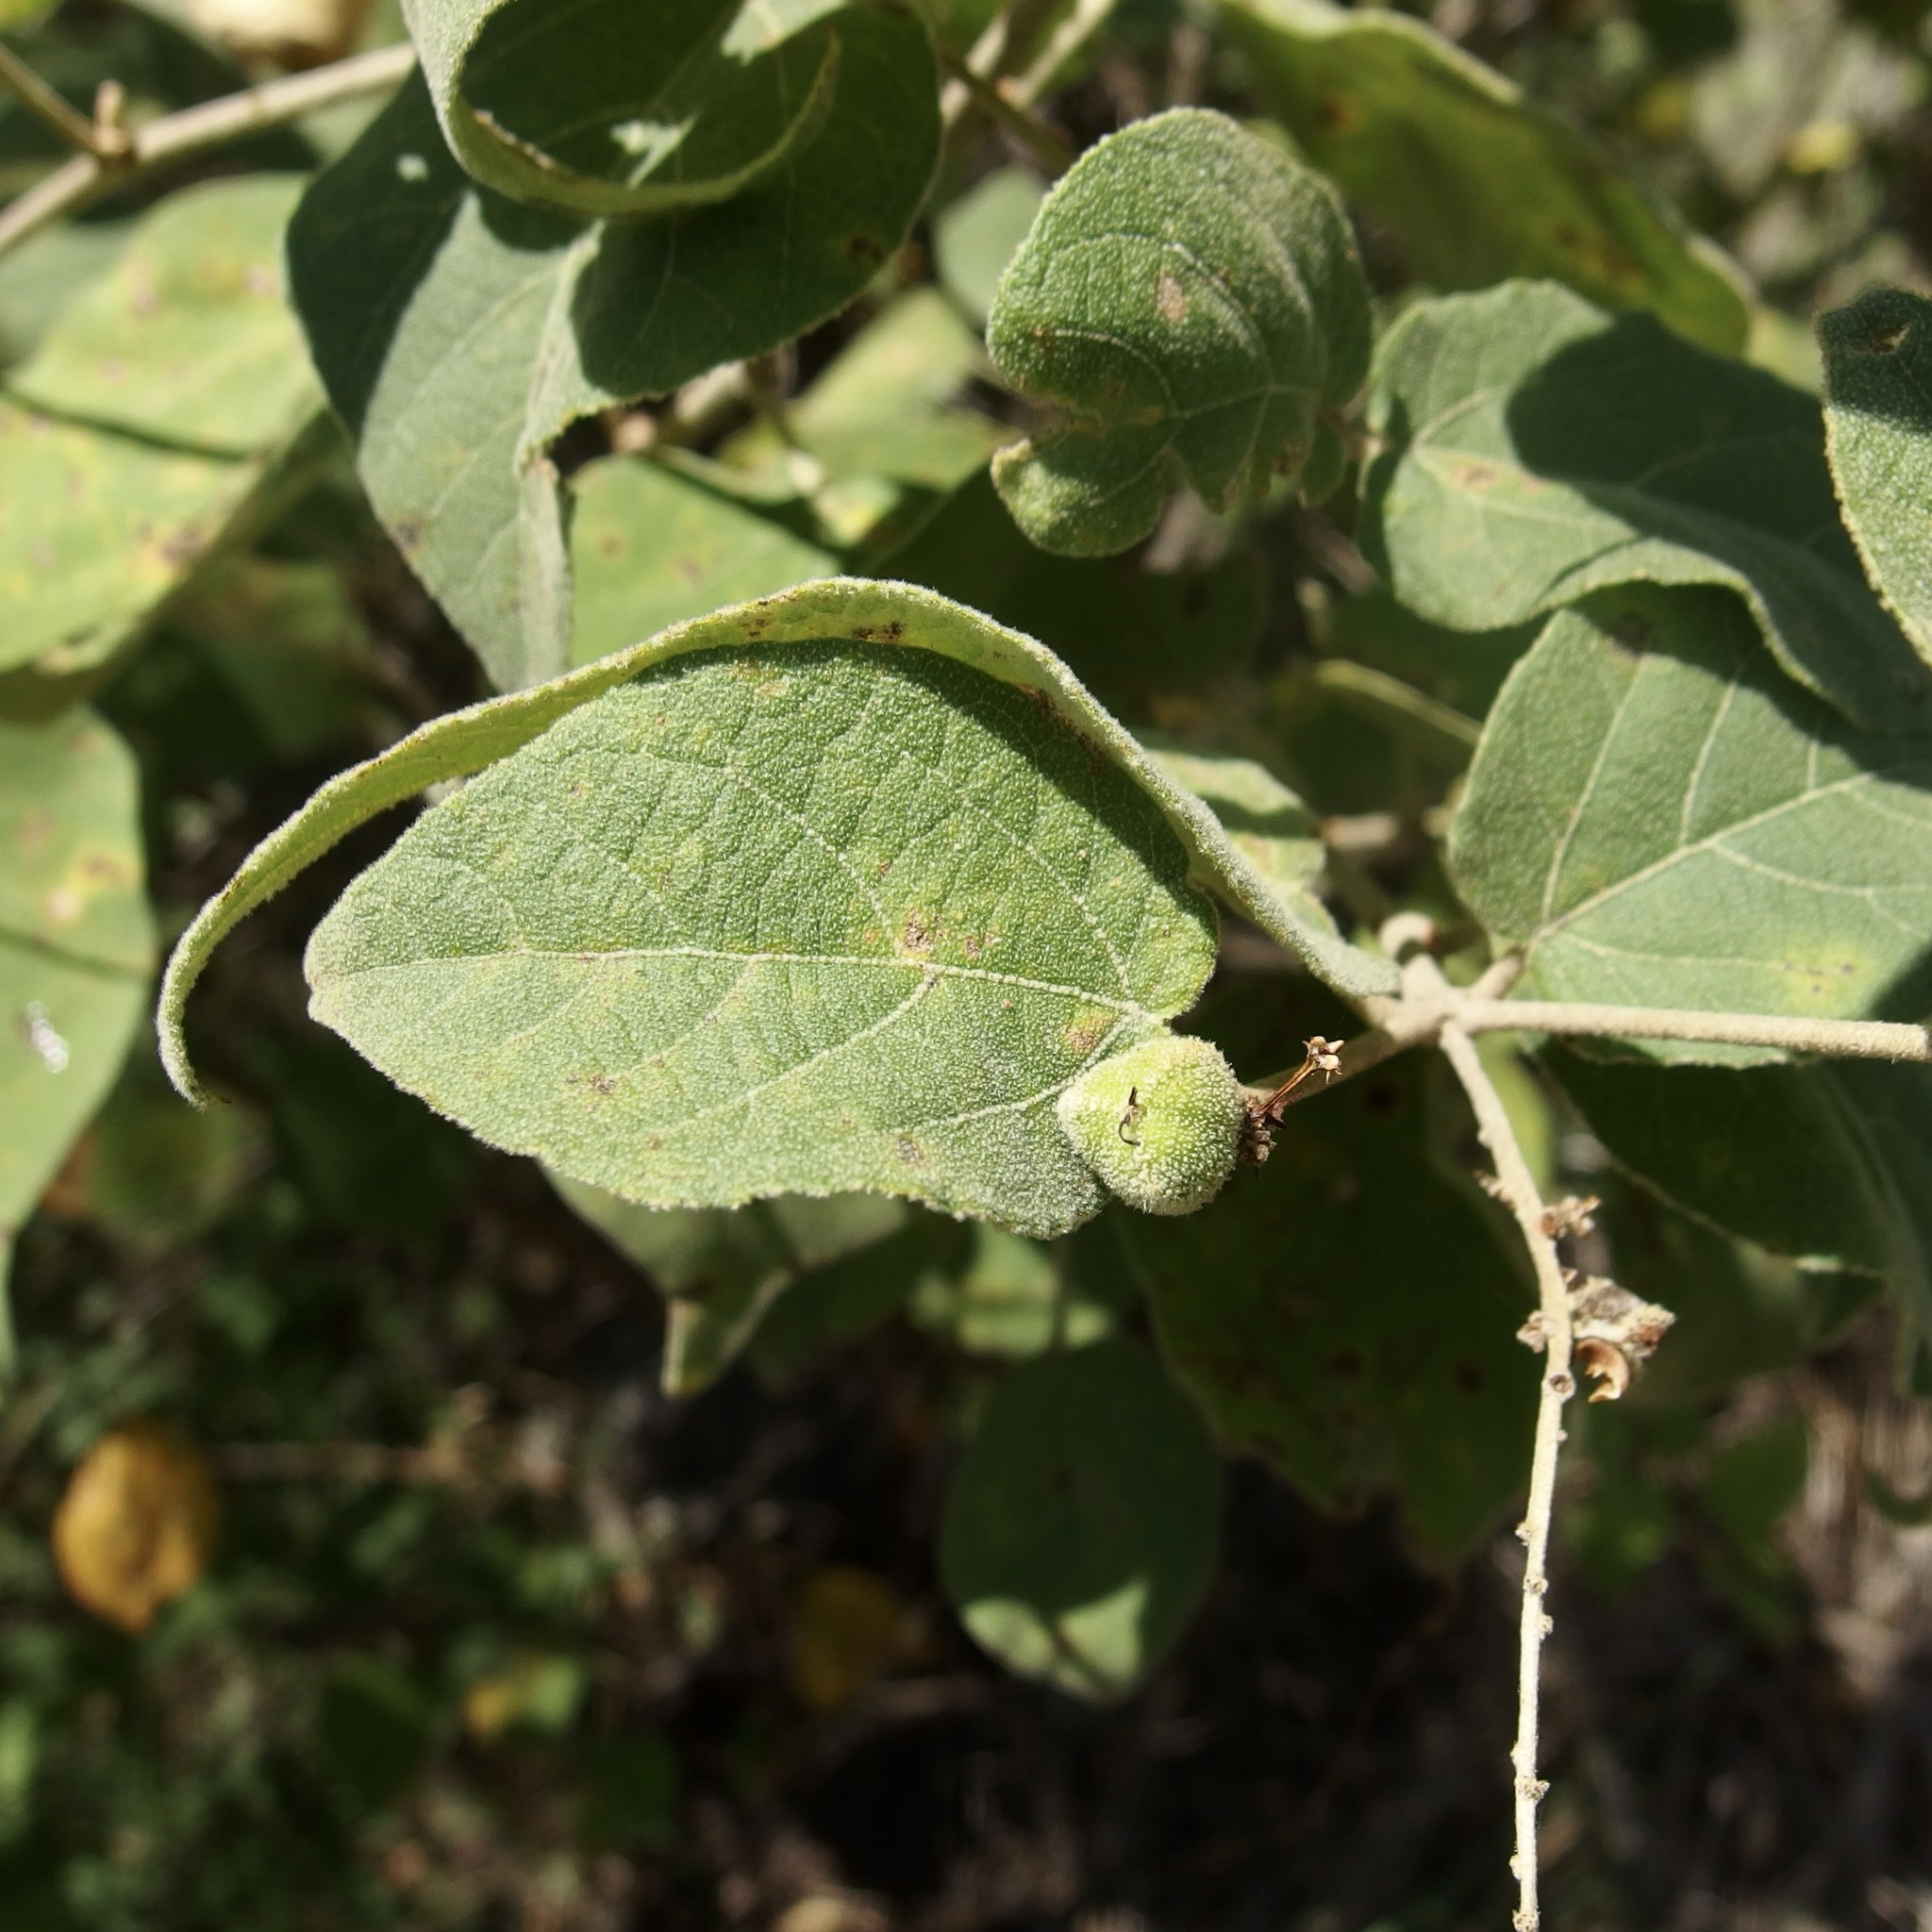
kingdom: Plantae
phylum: Tracheophyta
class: Magnoliopsida
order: Malpighiales
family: Euphorbiaceae
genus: Croton
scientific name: Croton morifolius
